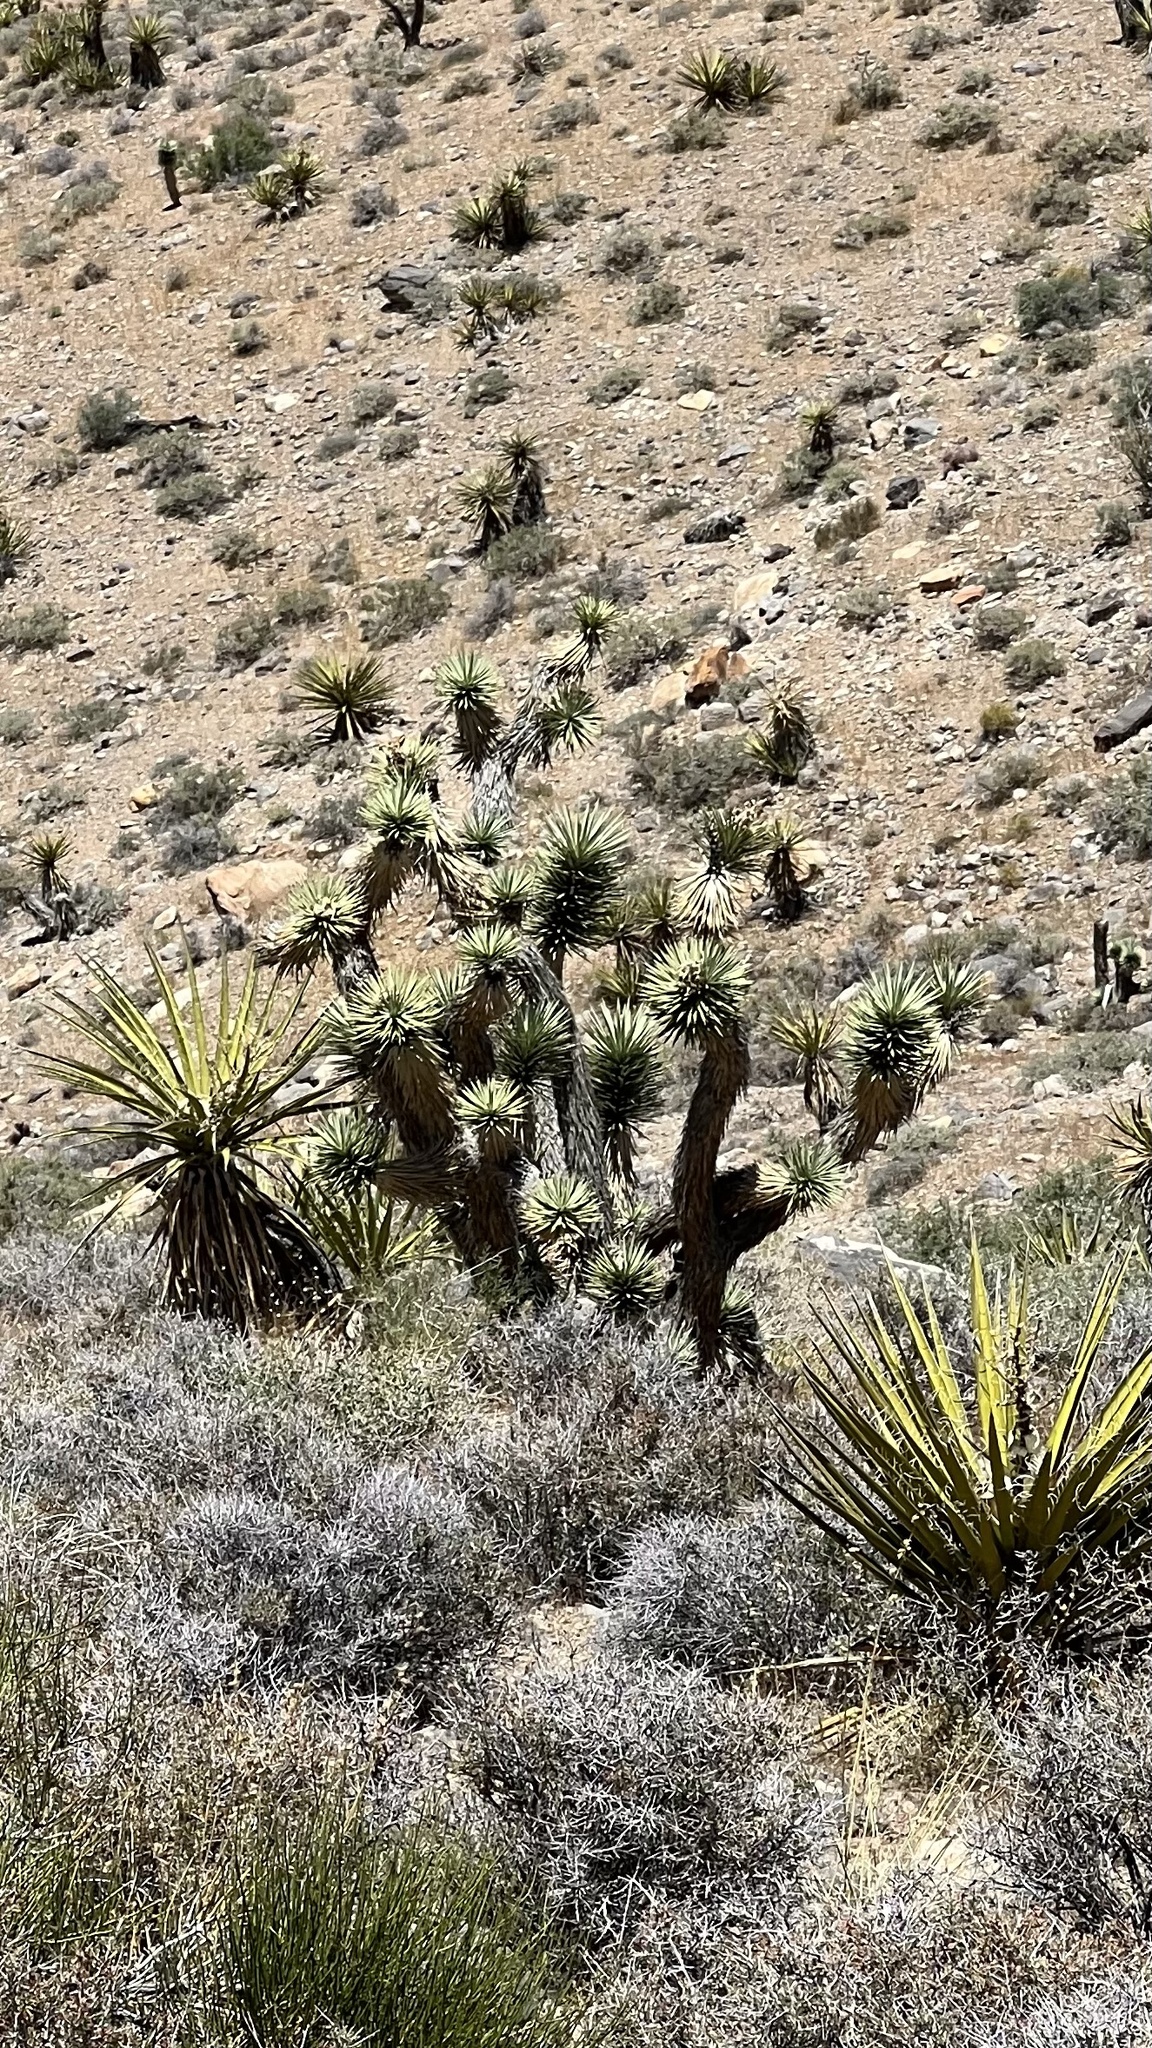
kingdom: Plantae
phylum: Tracheophyta
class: Liliopsida
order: Asparagales
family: Asparagaceae
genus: Yucca
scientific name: Yucca brevifolia
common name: Joshua tree
